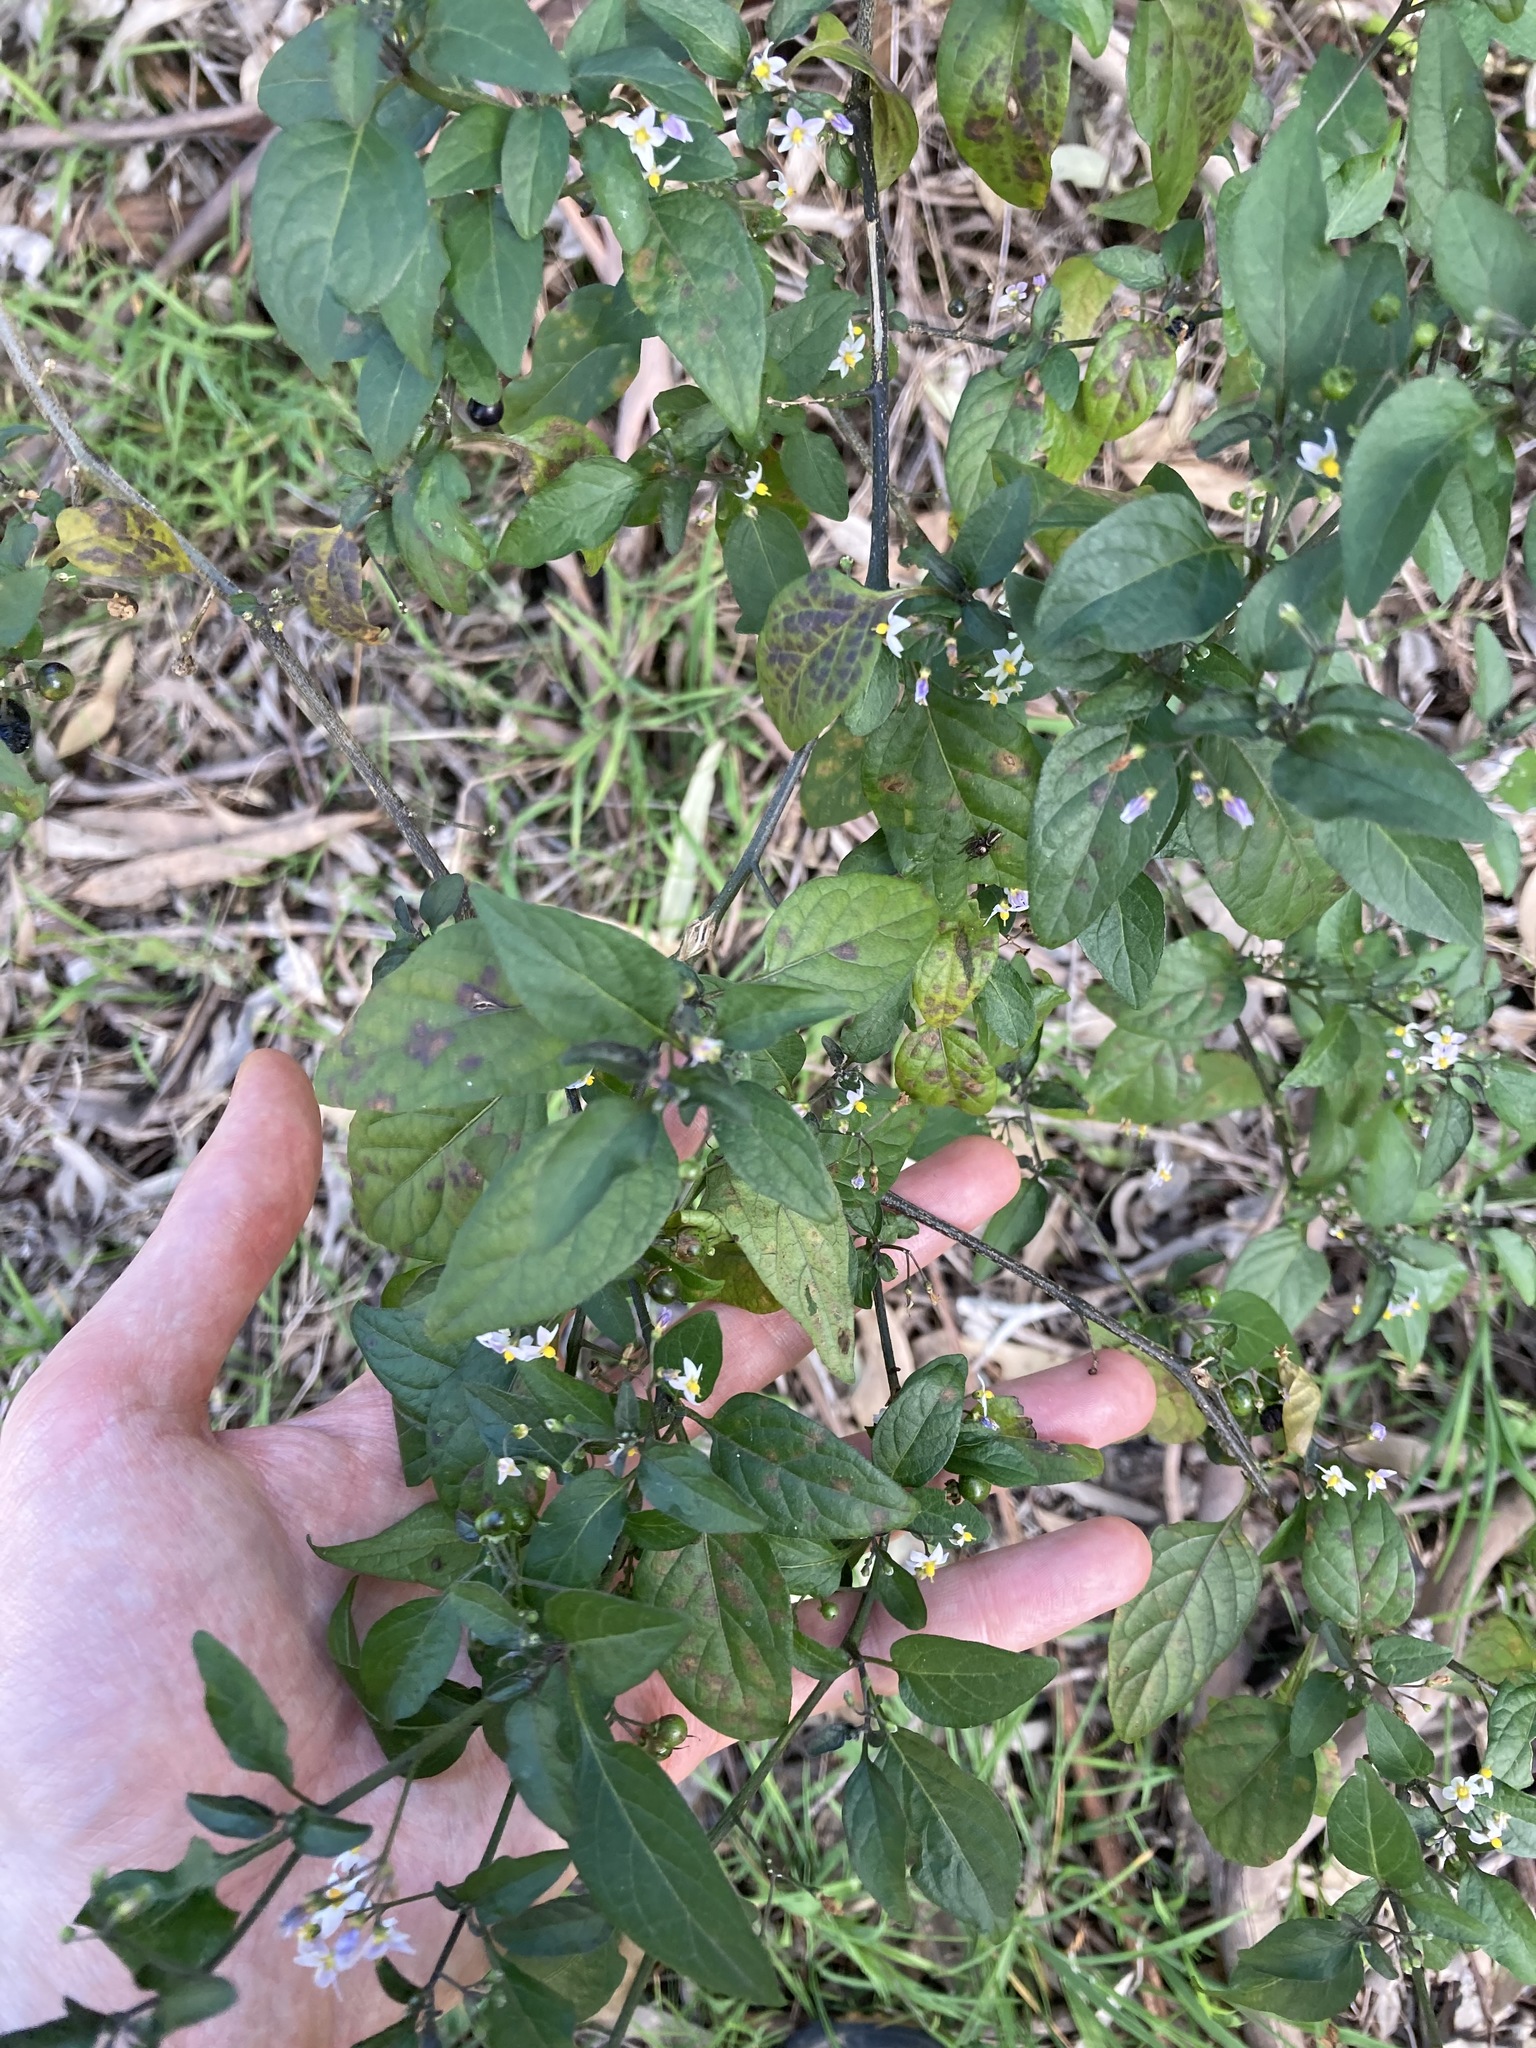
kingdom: Plantae
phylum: Tracheophyta
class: Magnoliopsida
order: Solanales
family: Solanaceae
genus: Solanum
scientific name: Solanum americanum
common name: American black nightshade
